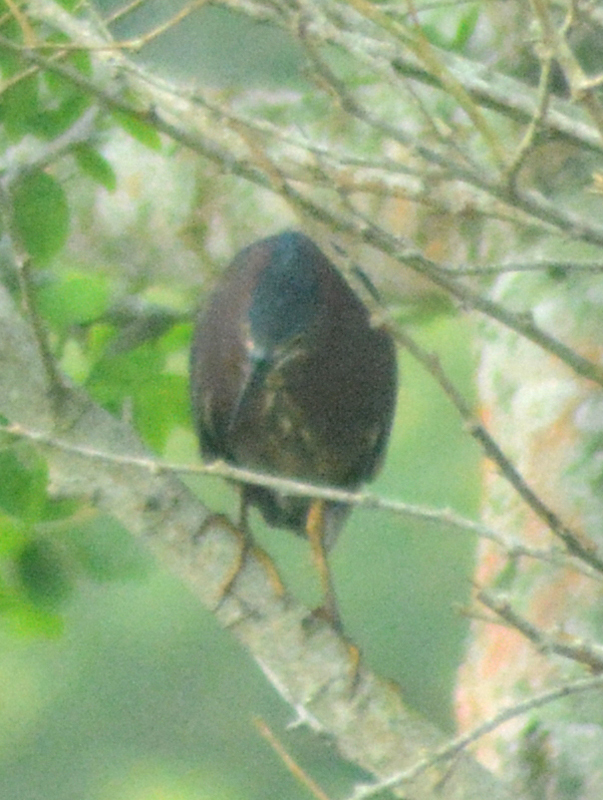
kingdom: Animalia
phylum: Chordata
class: Aves
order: Pelecaniformes
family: Ardeidae
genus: Butorides
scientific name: Butorides virescens
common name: Green heron
